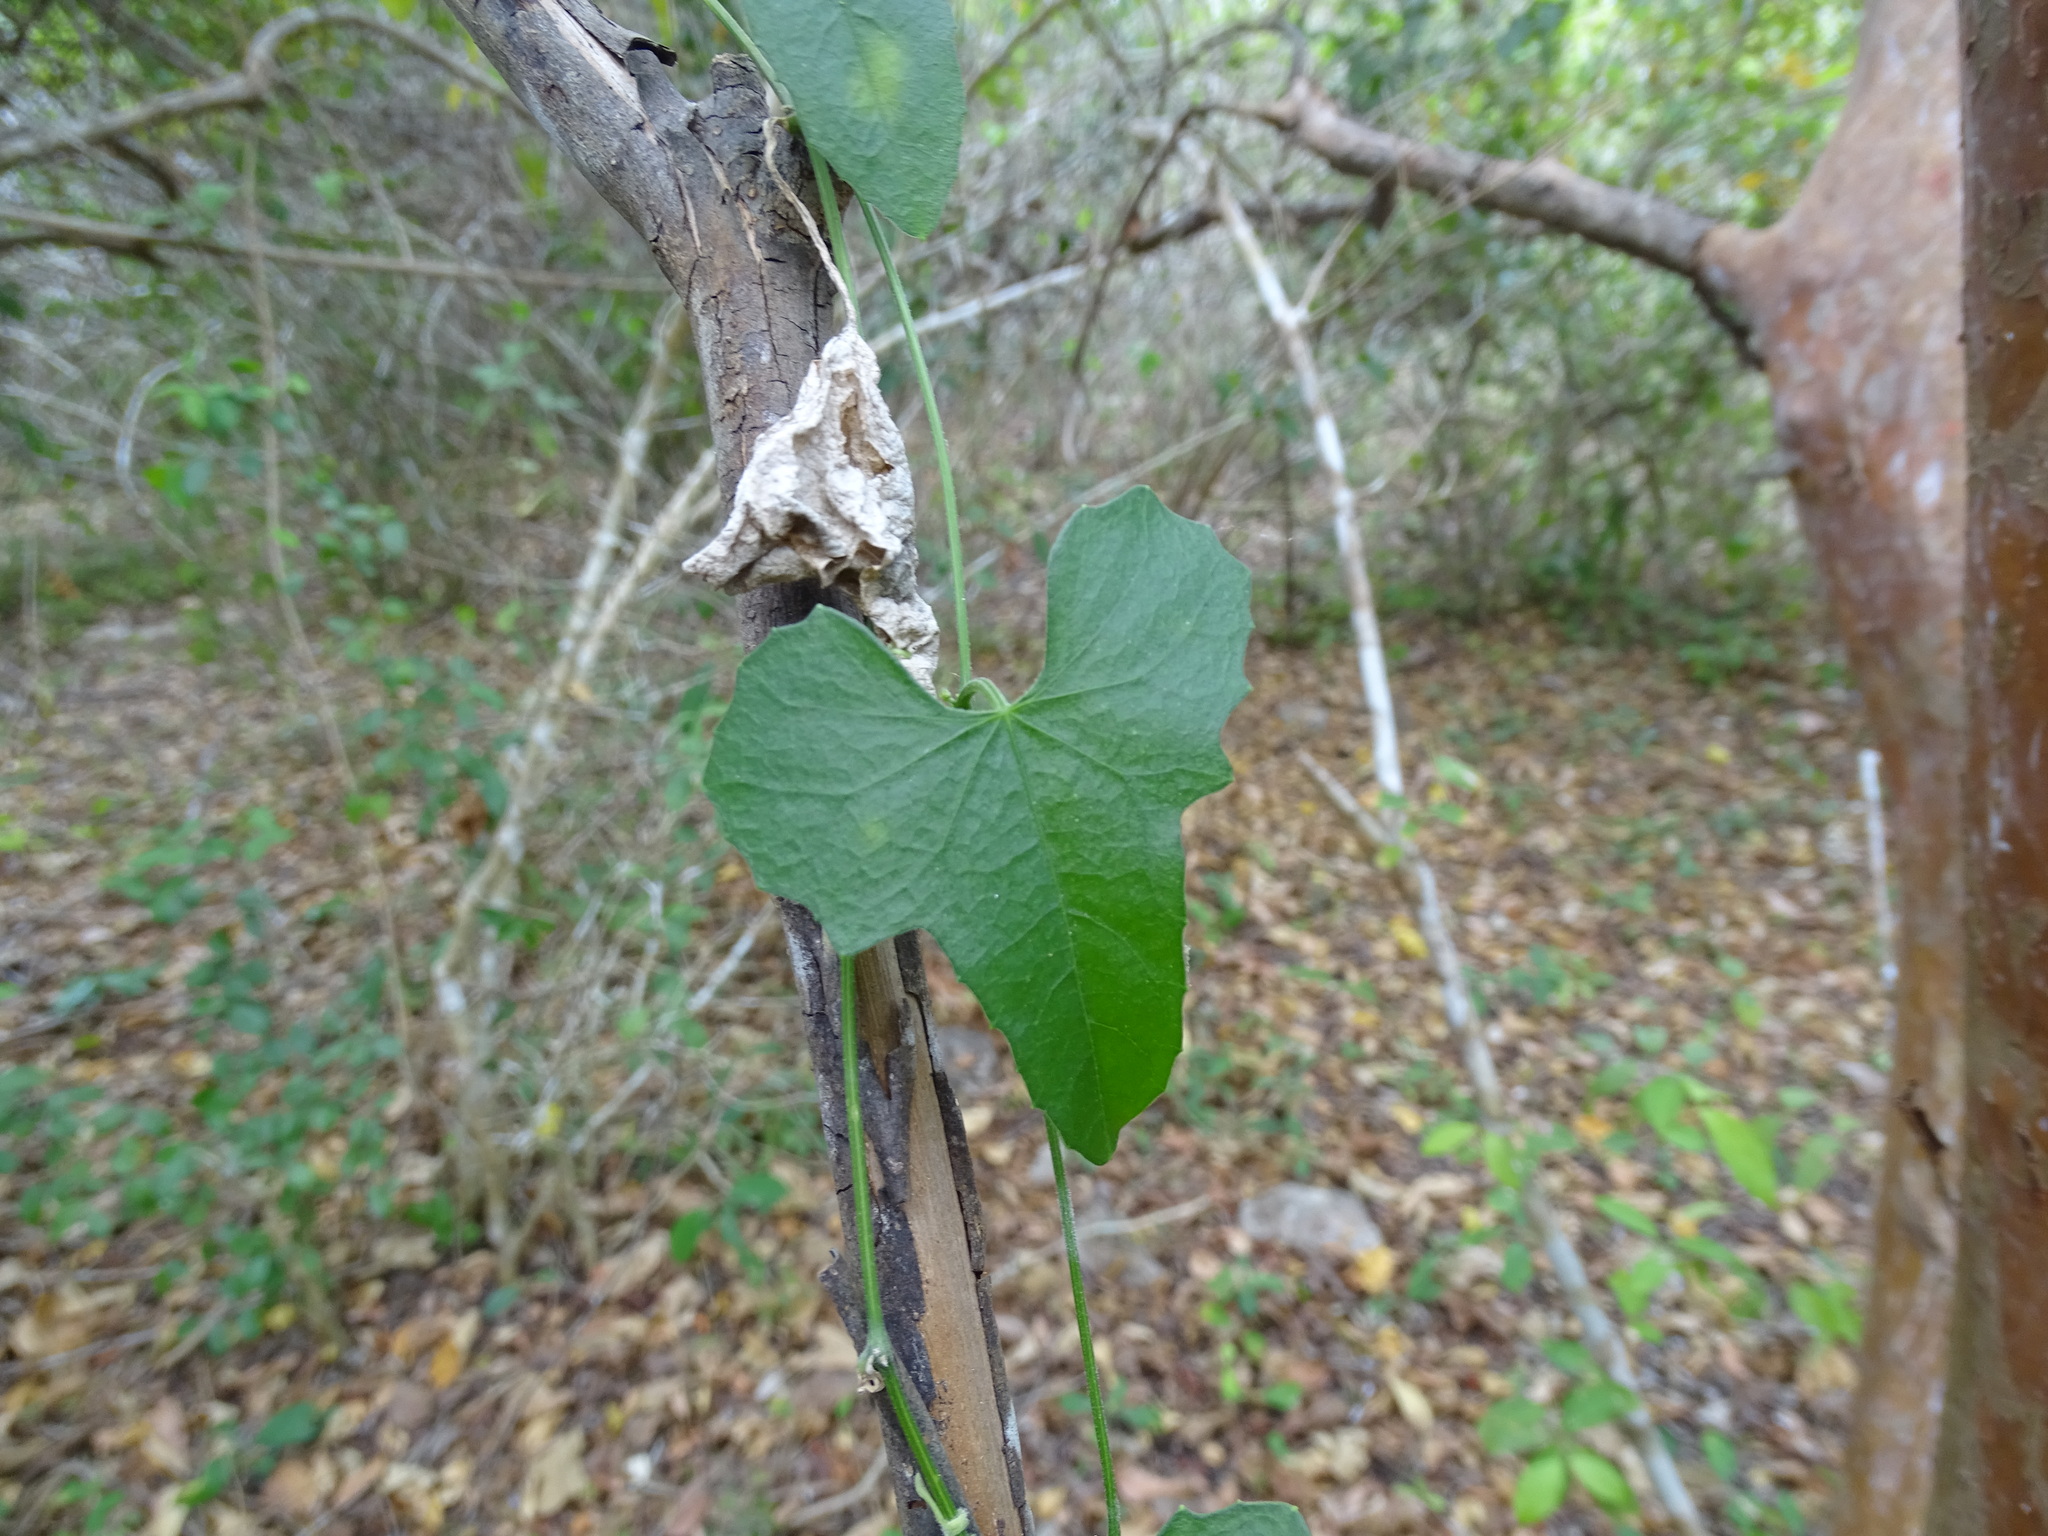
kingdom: Plantae
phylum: Tracheophyta
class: Magnoliopsida
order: Cucurbitales
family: Cucurbitaceae
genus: Melothria
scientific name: Melothria pendula
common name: Creeping-cucumber
